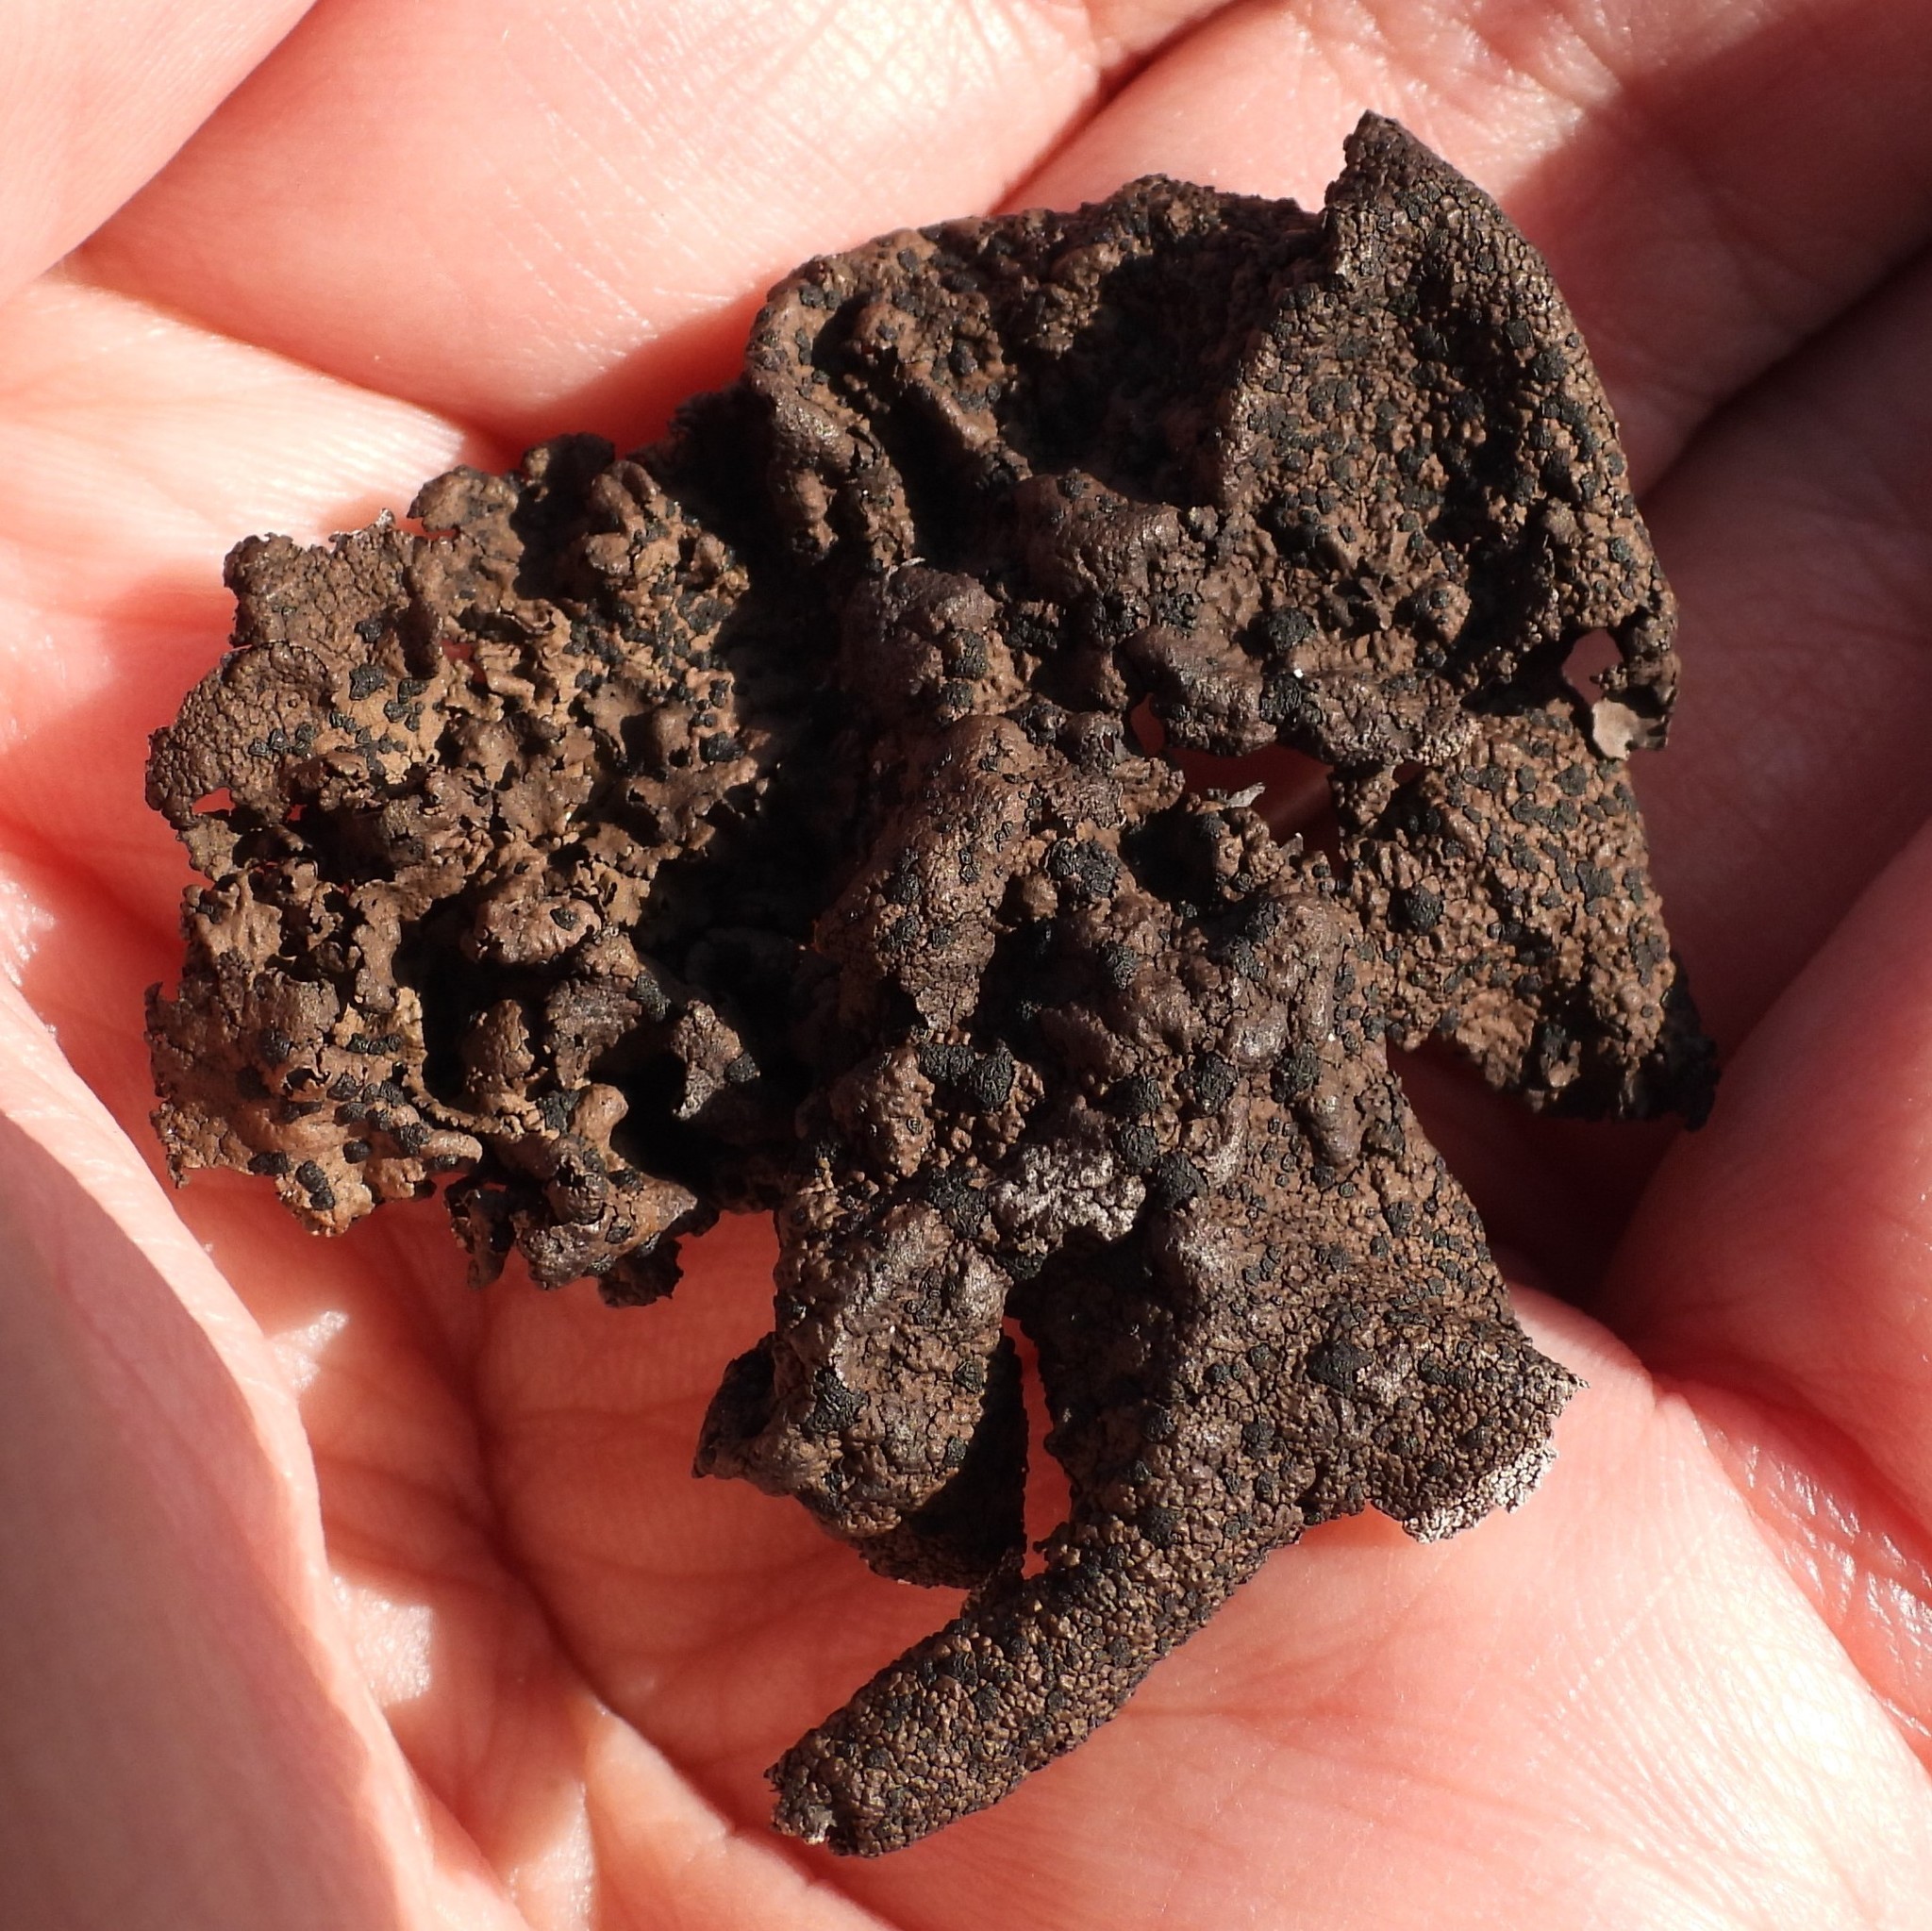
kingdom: Fungi
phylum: Ascomycota
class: Lecanoromycetes
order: Umbilicariales
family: Umbilicariaceae
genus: Umbilicaria
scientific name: Umbilicaria hyperborea
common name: Blistered rock tripe
